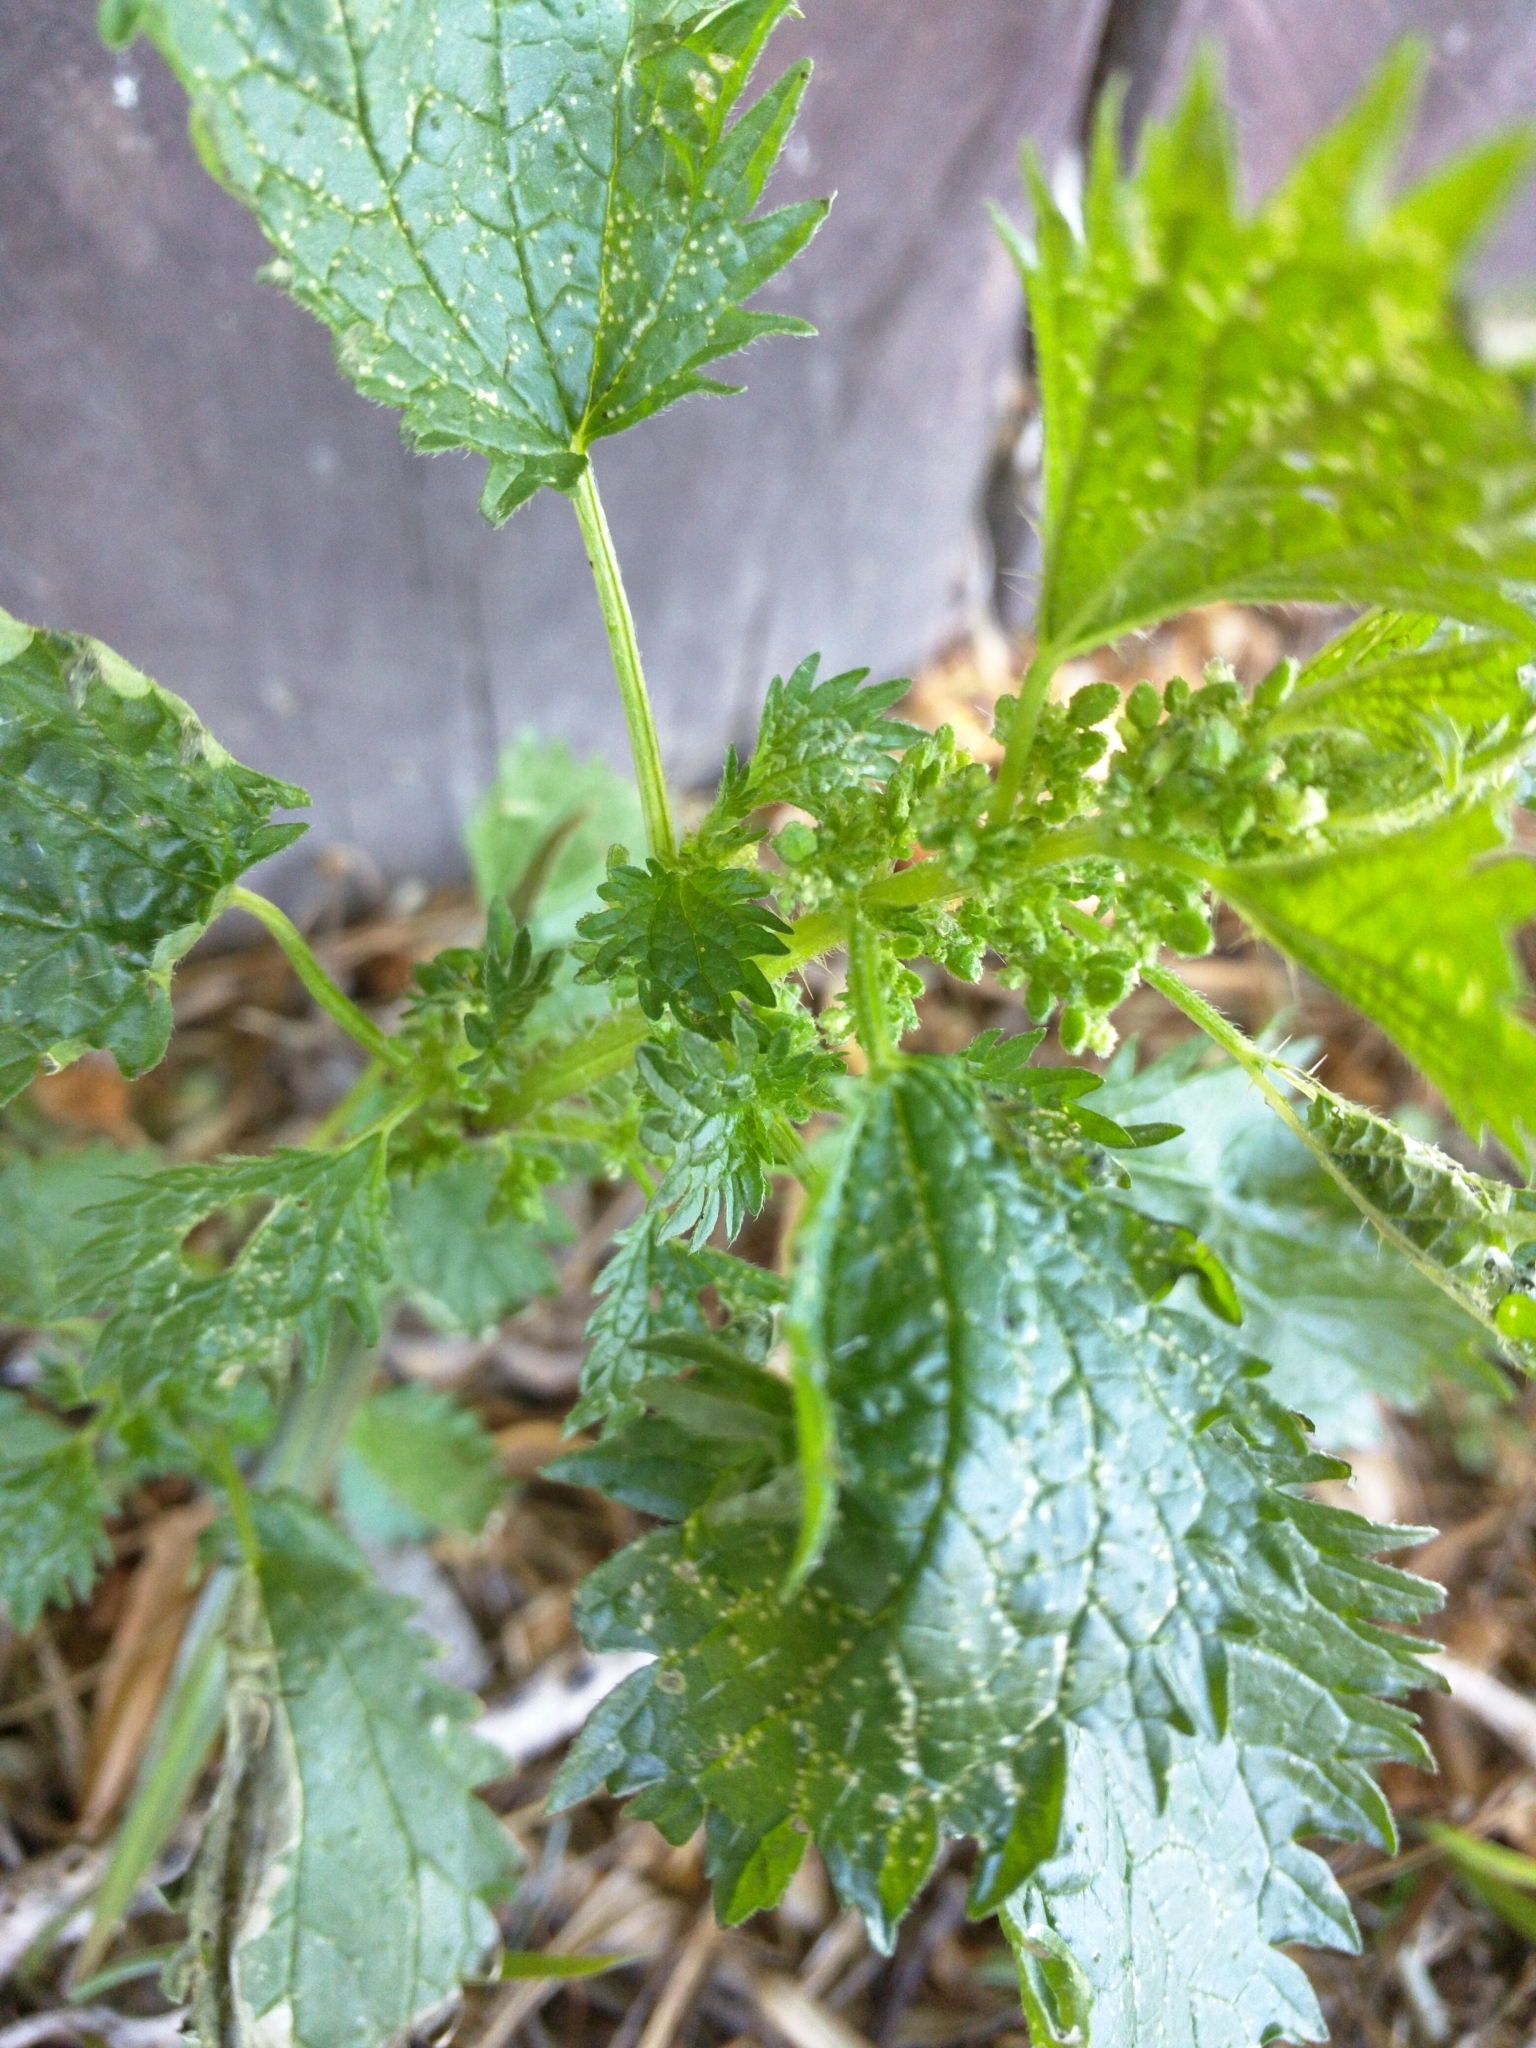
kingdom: Plantae
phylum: Tracheophyta
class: Magnoliopsida
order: Rosales
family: Urticaceae
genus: Urtica
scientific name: Urtica urens
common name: Dwarf nettle
